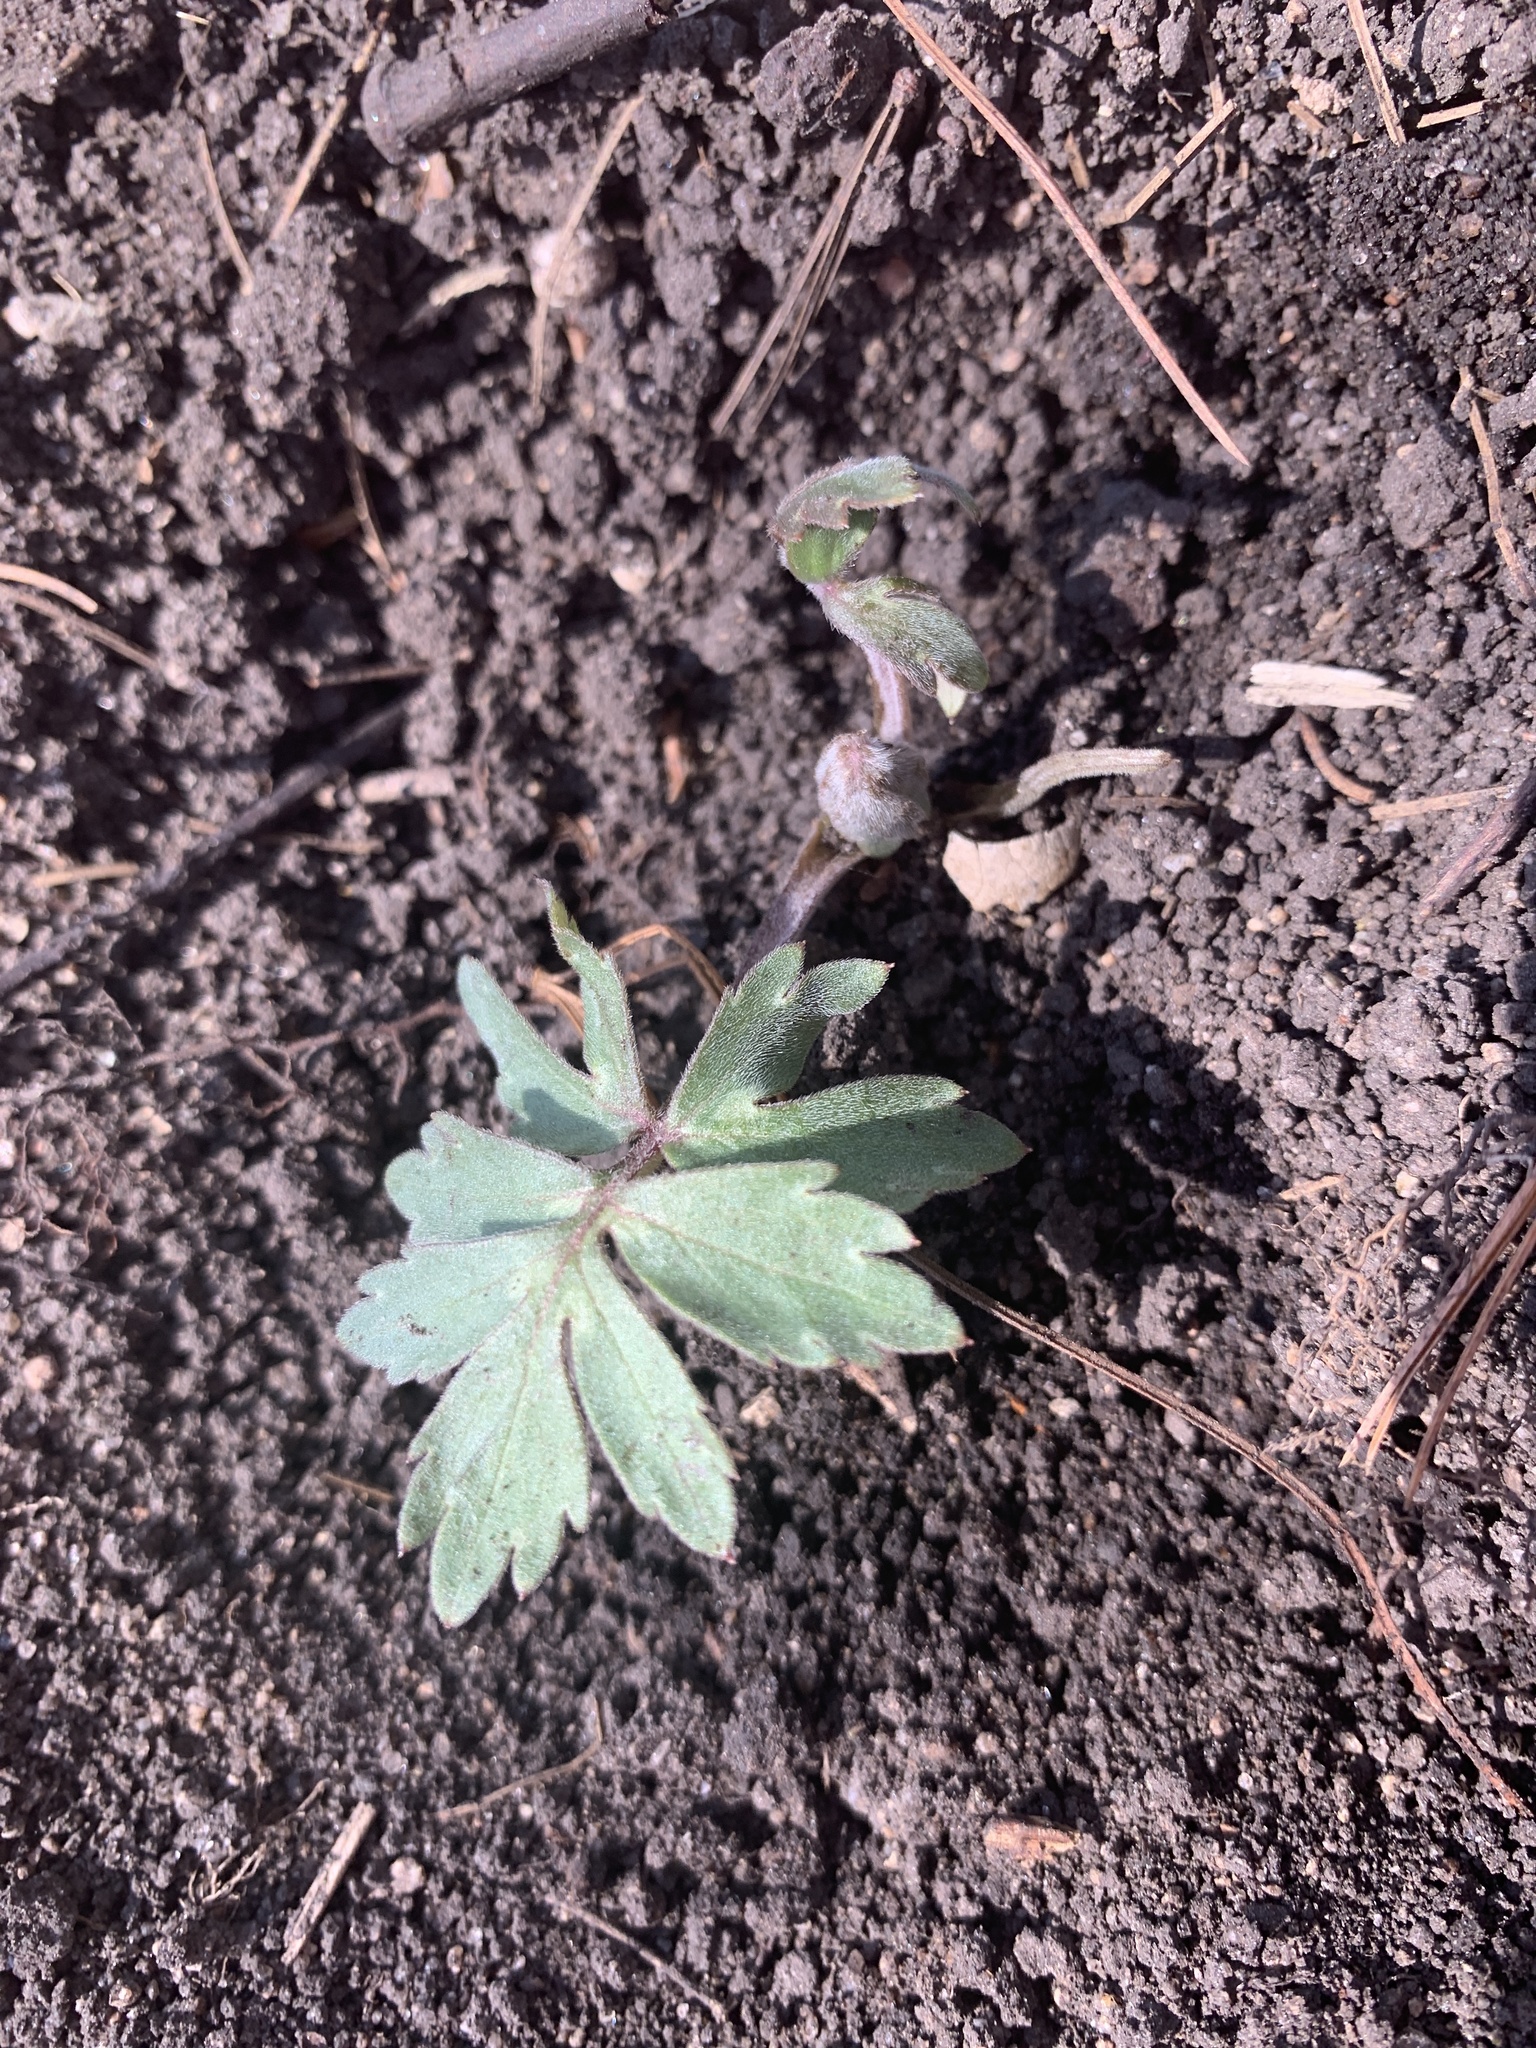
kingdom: Plantae
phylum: Tracheophyta
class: Magnoliopsida
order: Boraginales
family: Hydrophyllaceae
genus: Hydrophyllum
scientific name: Hydrophyllum virginianum
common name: Virginia waterleaf
